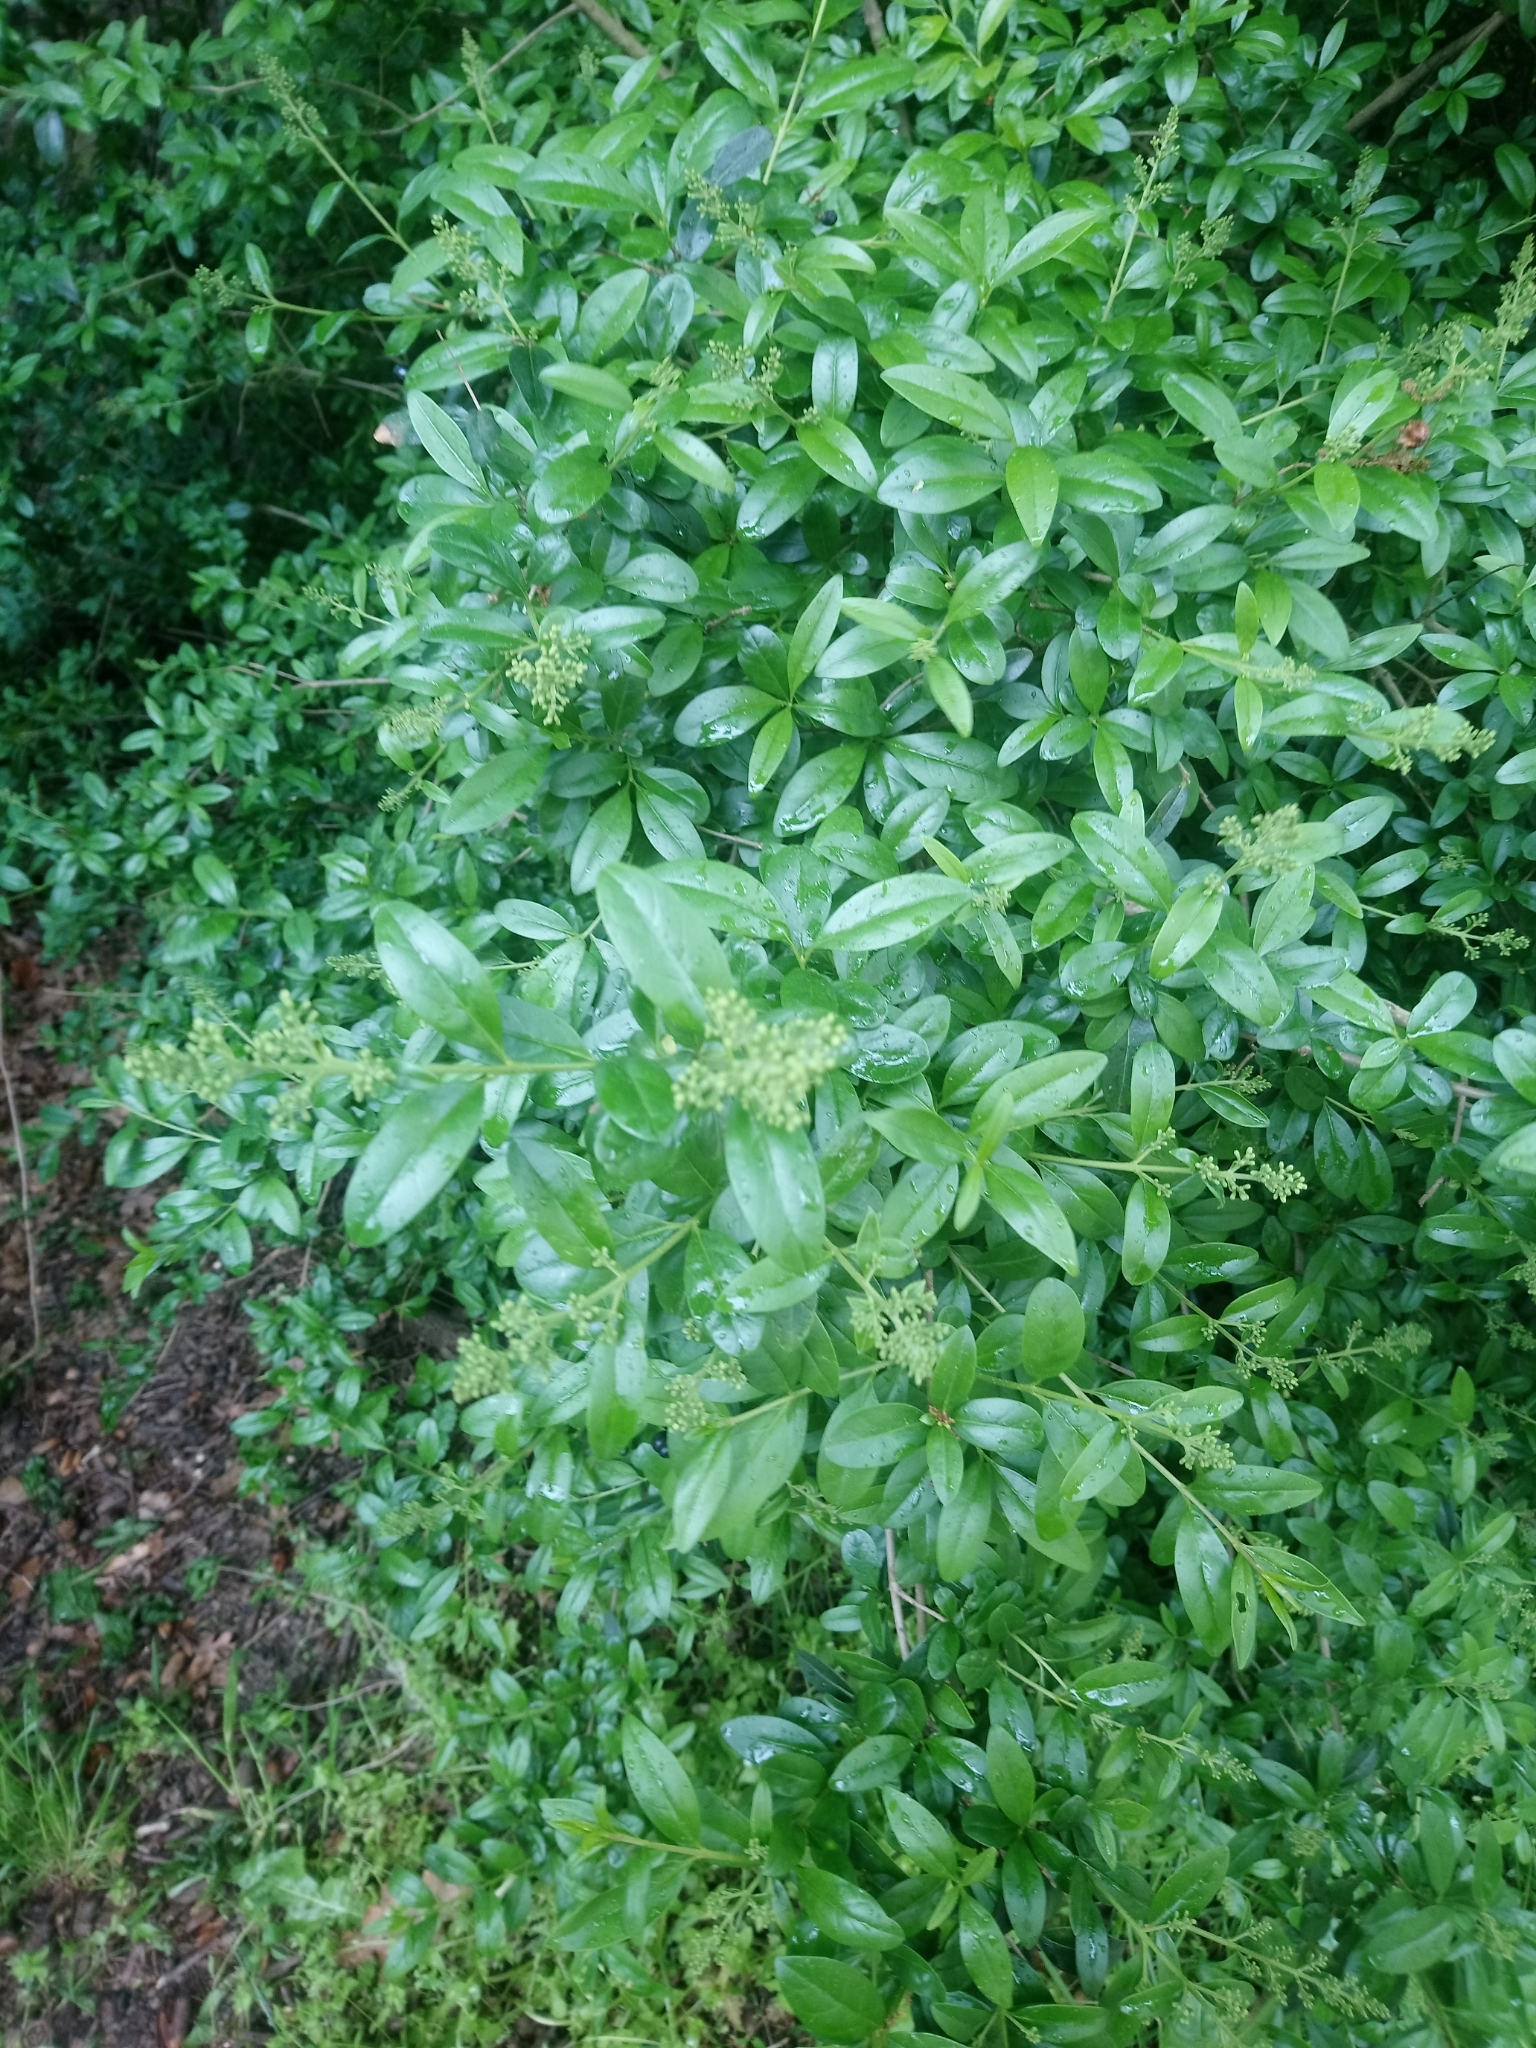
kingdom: Plantae
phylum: Tracheophyta
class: Magnoliopsida
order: Lamiales
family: Oleaceae
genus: Ligustrum
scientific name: Ligustrum vulgare
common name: Wild privet
